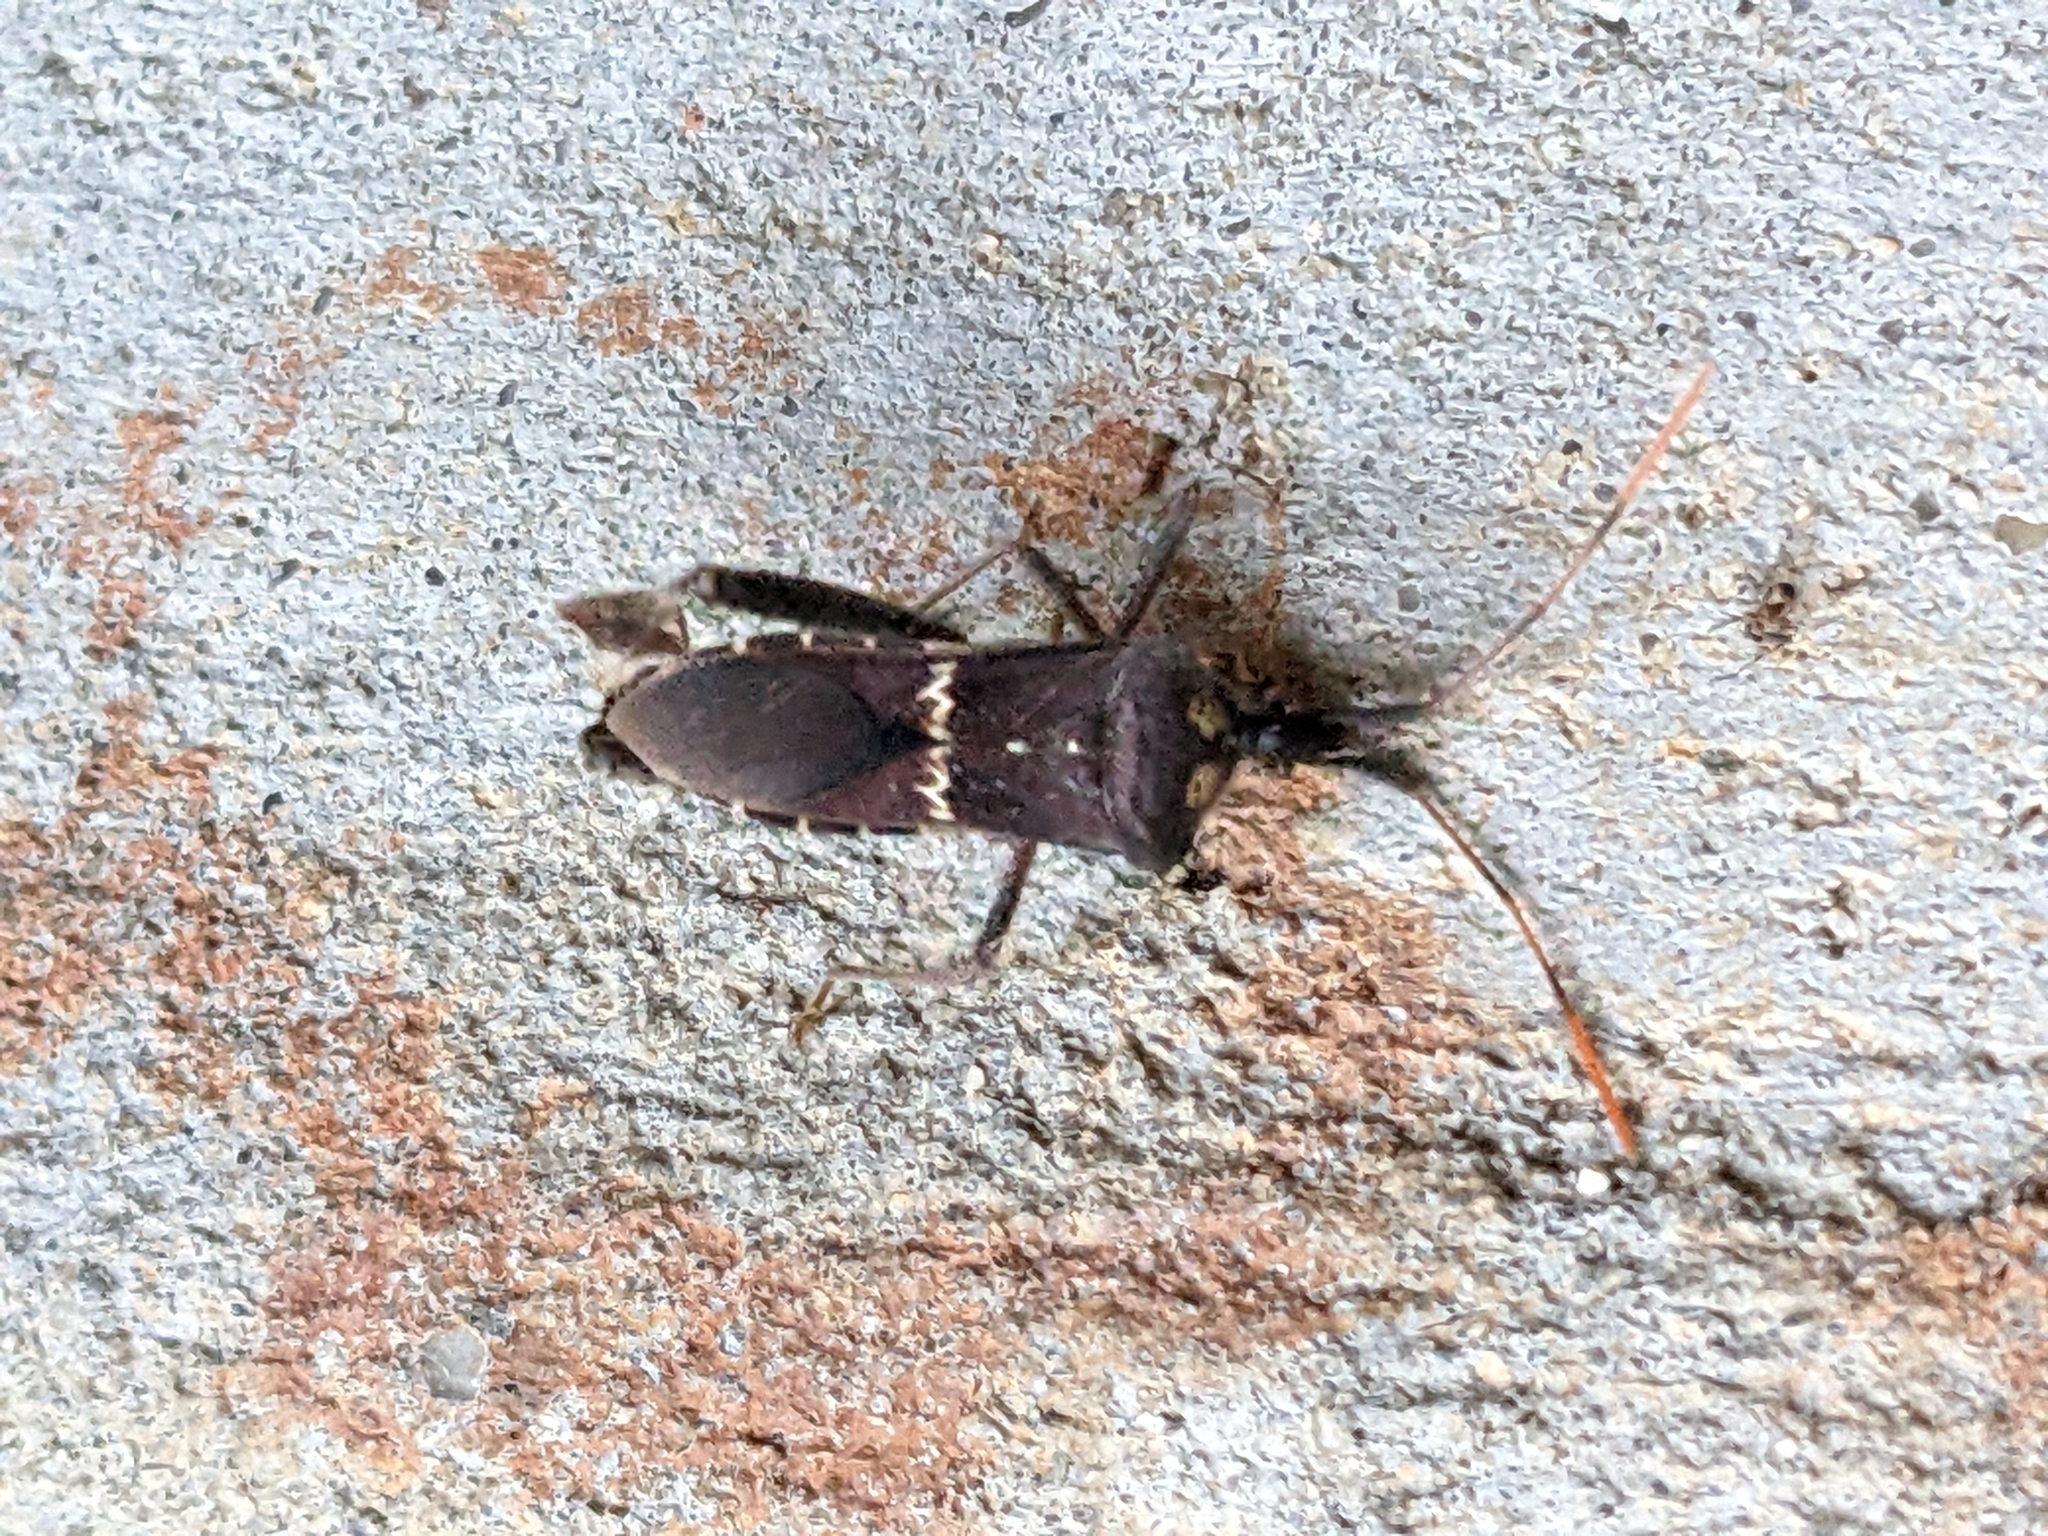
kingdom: Animalia
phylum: Arthropoda
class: Insecta
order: Hemiptera
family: Coreidae
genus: Leptoglossus
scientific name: Leptoglossus zonatus
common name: Large-legged bug
